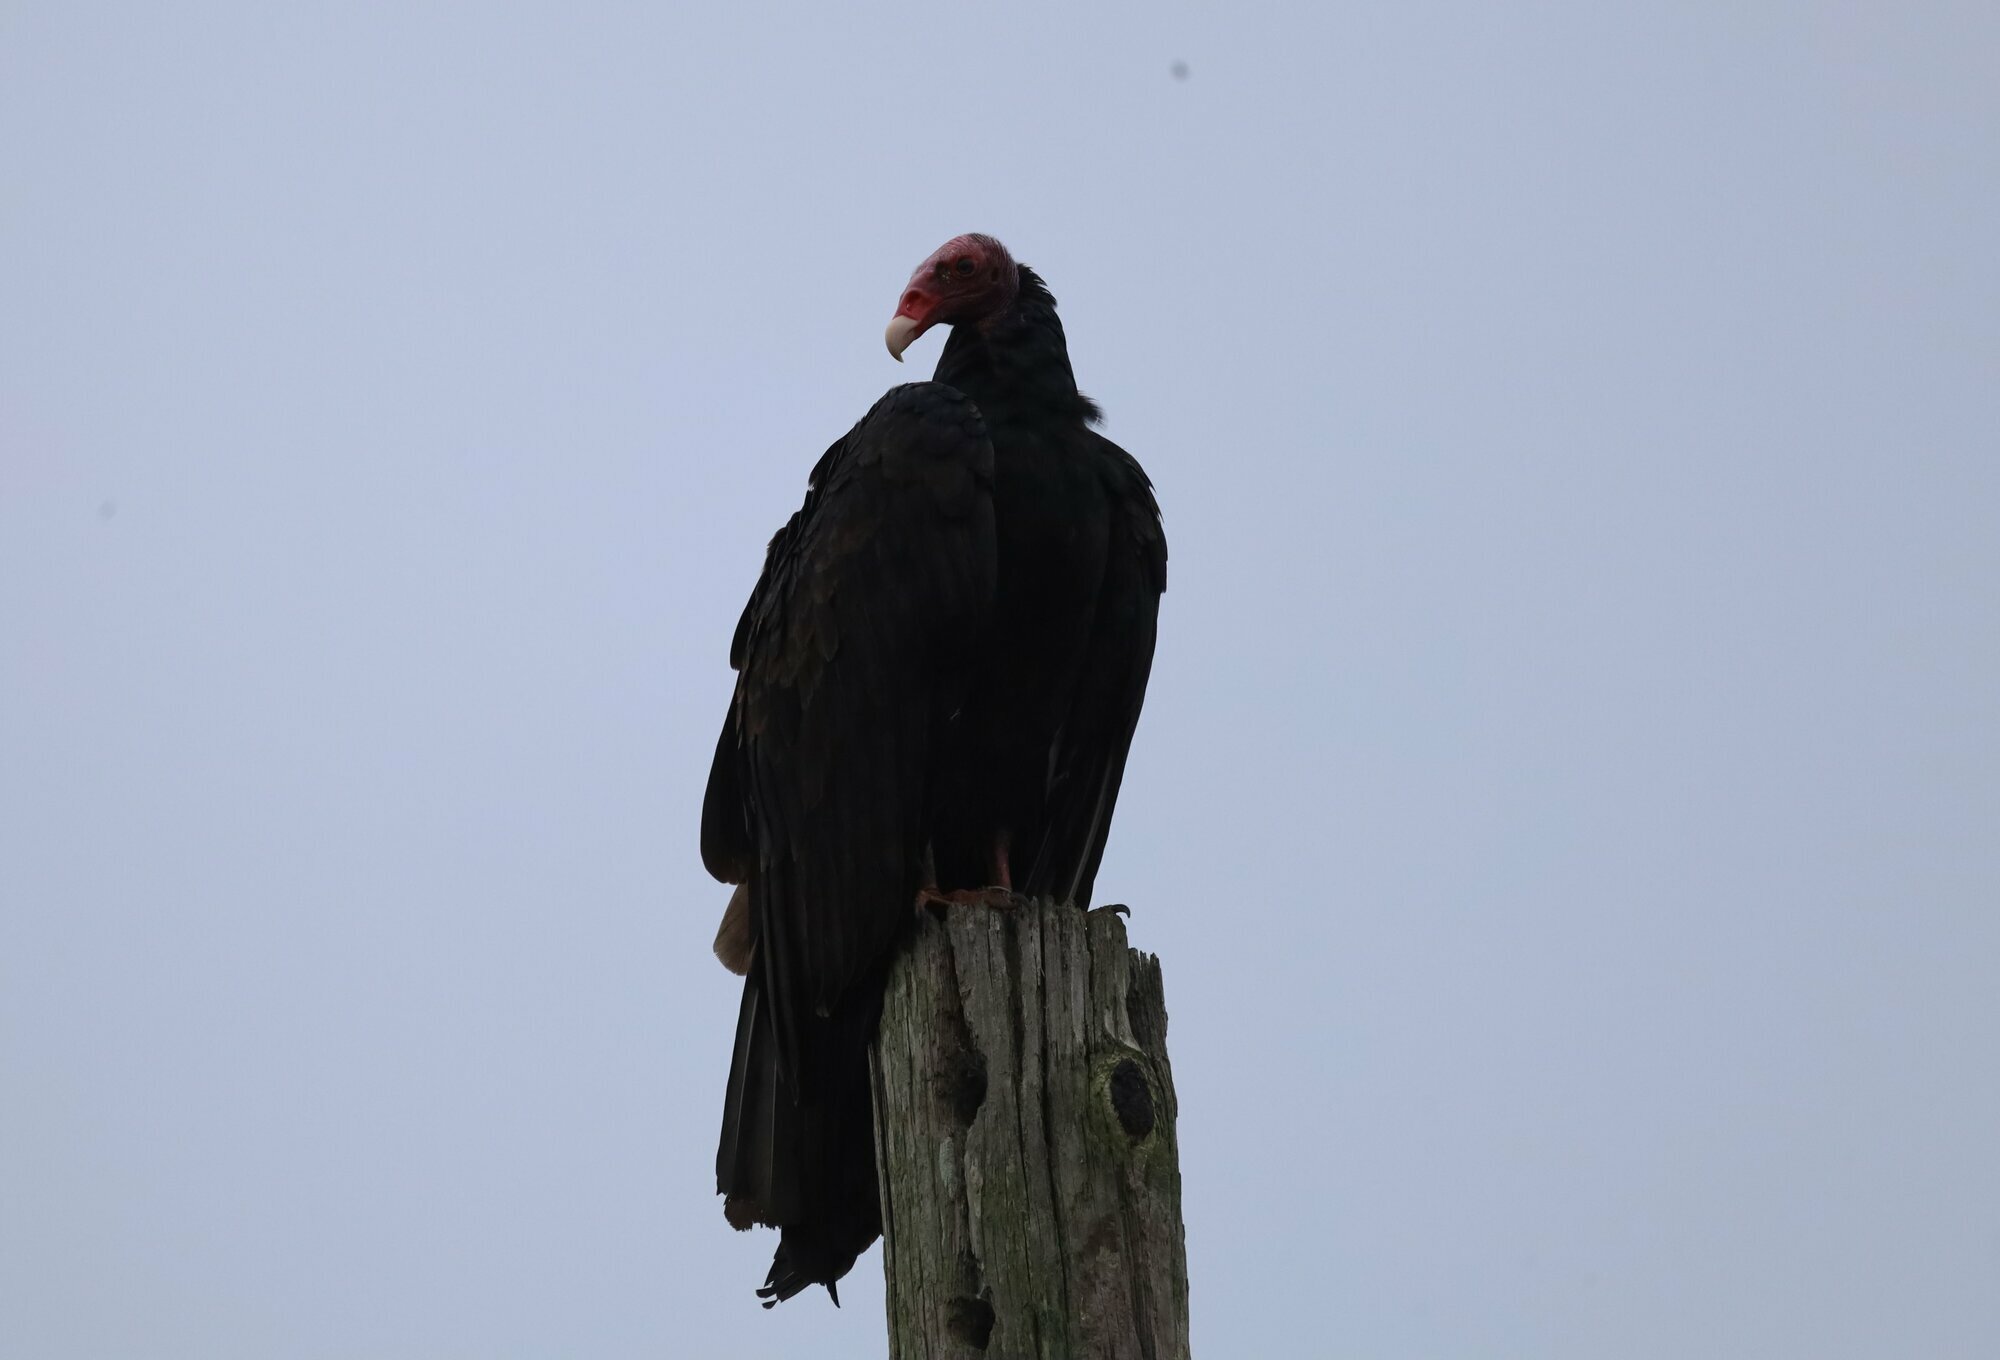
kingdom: Animalia
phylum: Chordata
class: Aves
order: Accipitriformes
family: Cathartidae
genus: Cathartes
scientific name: Cathartes aura
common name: Turkey vulture
